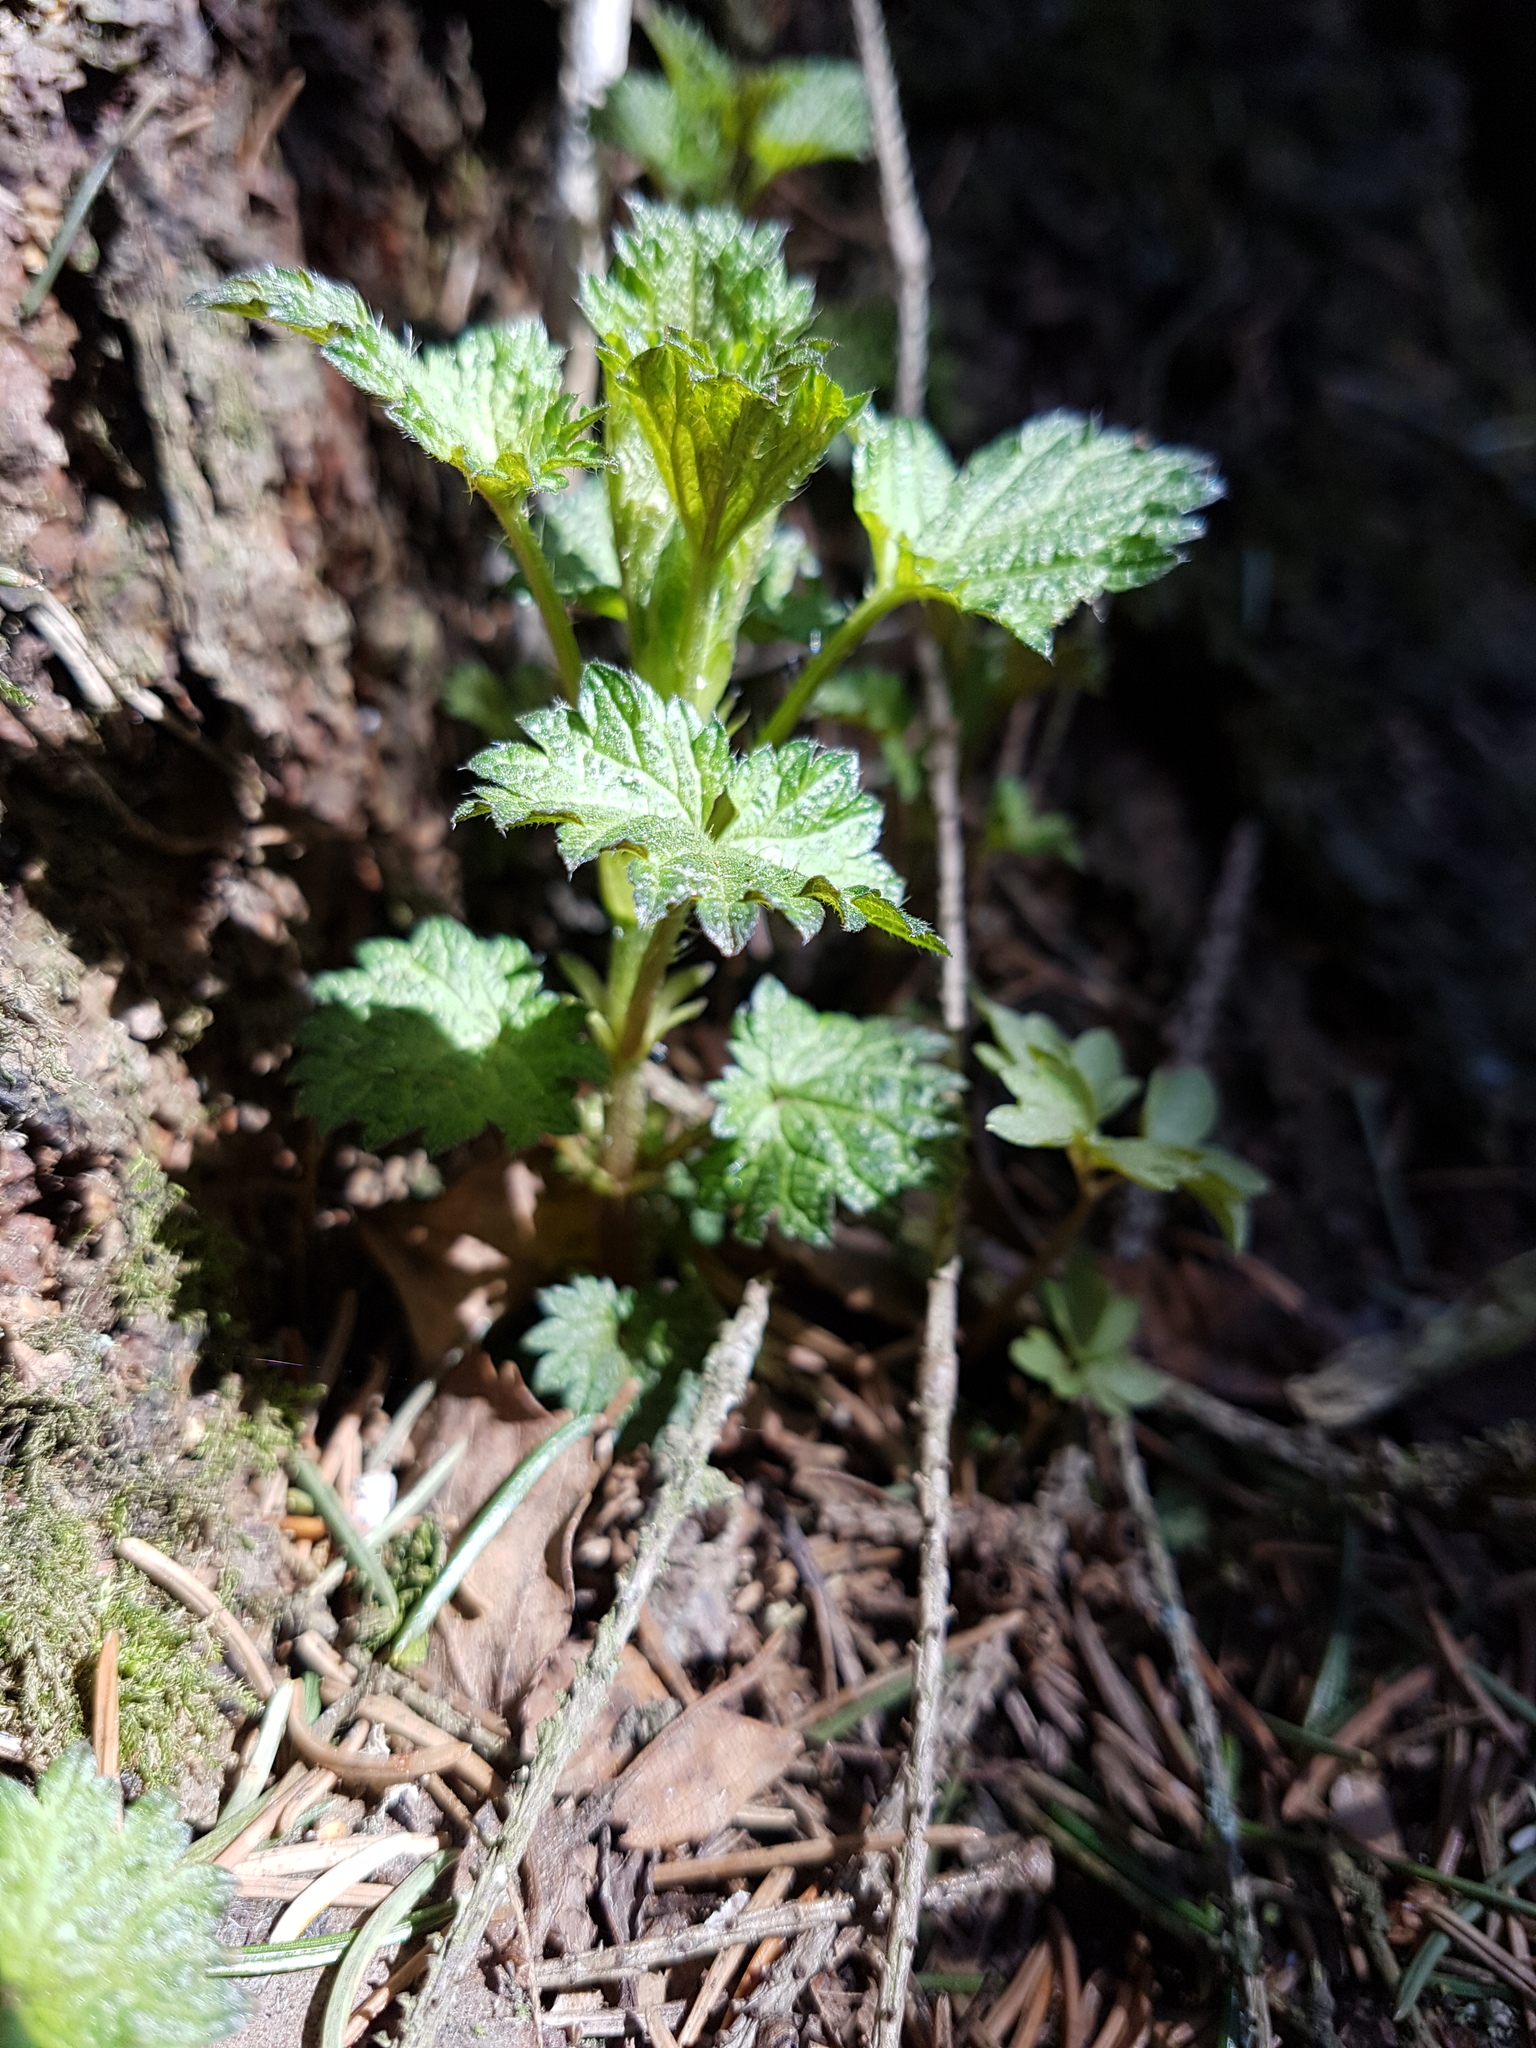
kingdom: Plantae
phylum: Tracheophyta
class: Magnoliopsida
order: Rosales
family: Urticaceae
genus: Urtica
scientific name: Urtica dioica
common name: Common nettle
